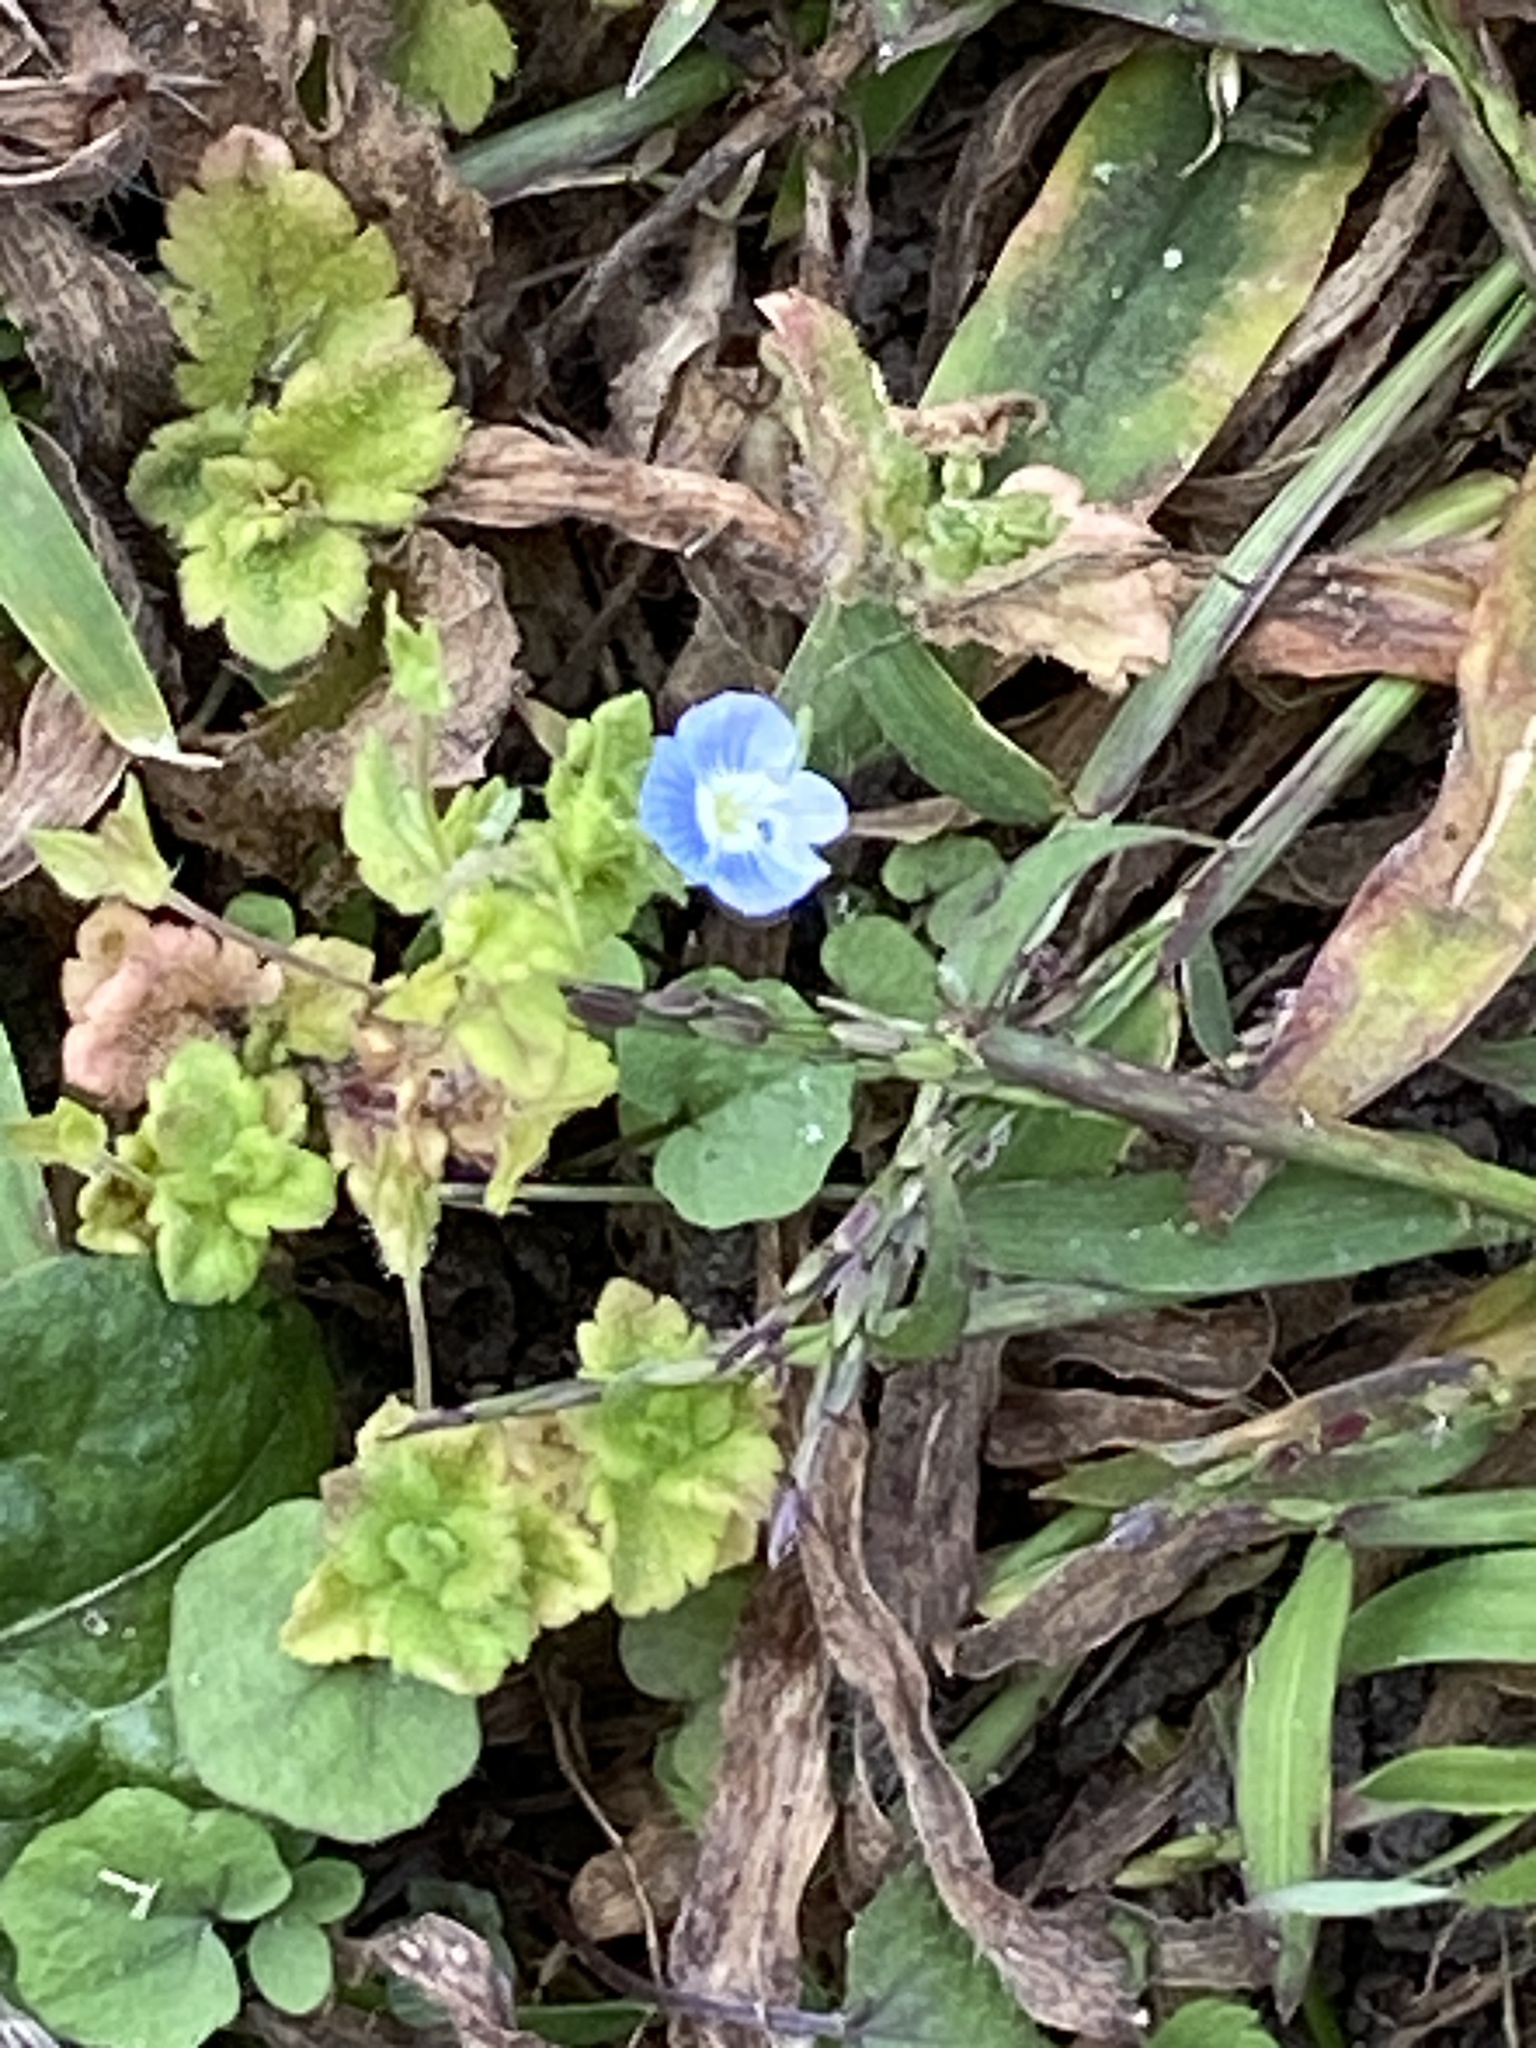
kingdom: Plantae
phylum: Tracheophyta
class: Magnoliopsida
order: Lamiales
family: Plantaginaceae
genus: Veronica
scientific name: Veronica persica
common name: Common field-speedwell
